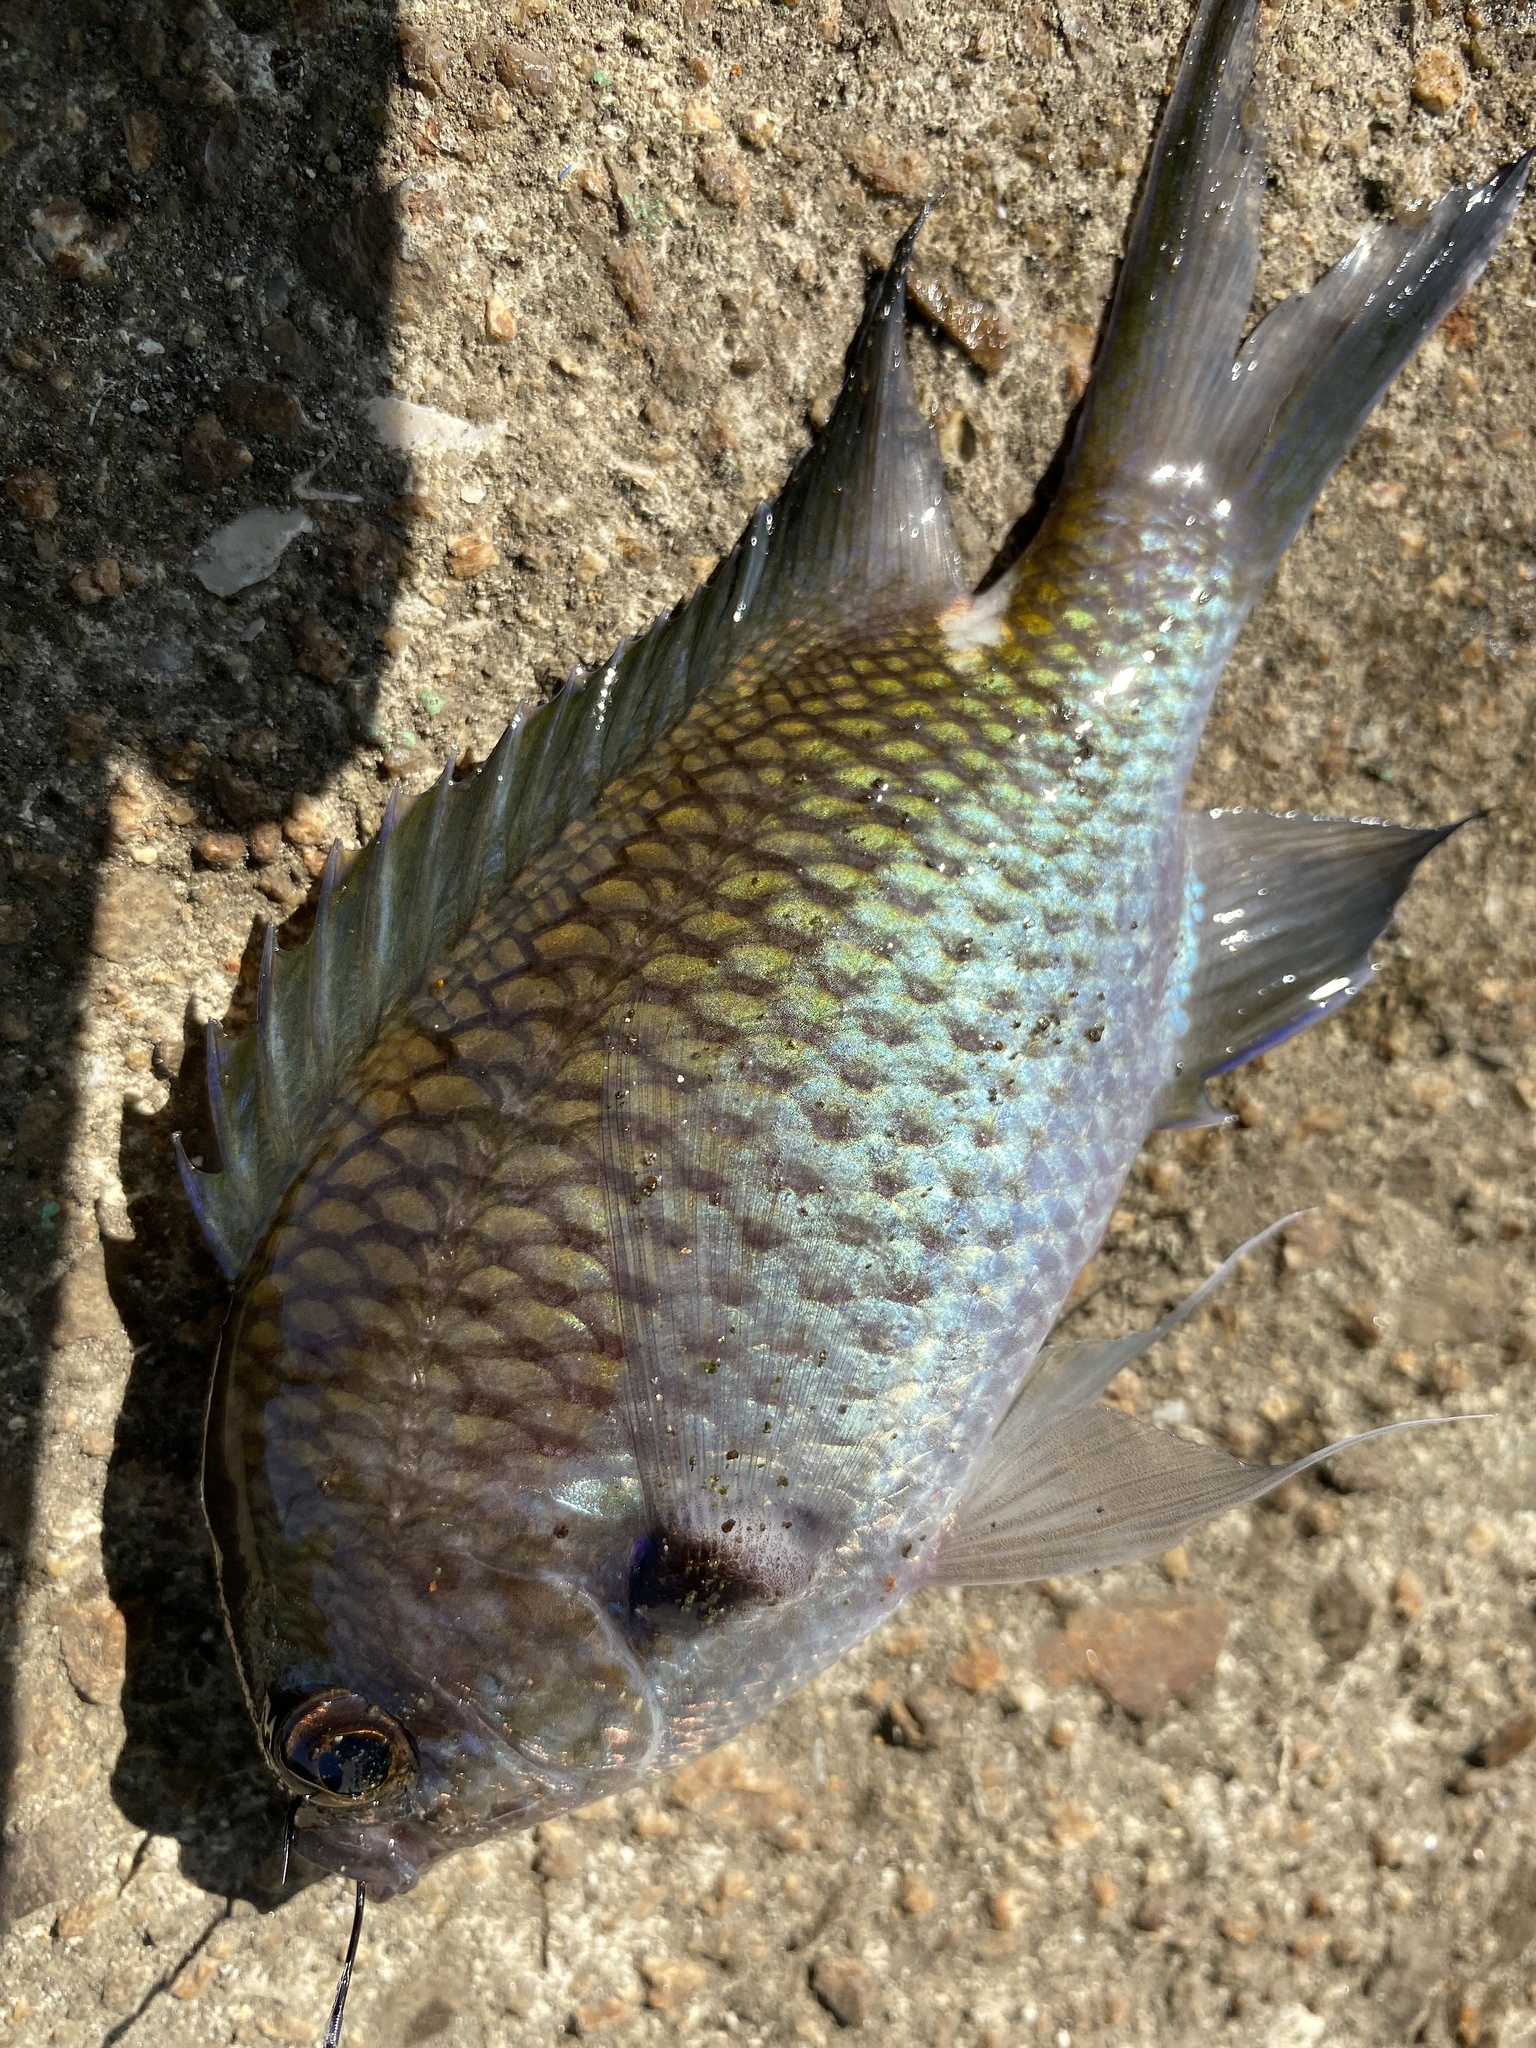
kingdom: Animalia
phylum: Chordata
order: Perciformes
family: Pomacentridae
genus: Chromis
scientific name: Chromis notata
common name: Pearl-spot chromis
